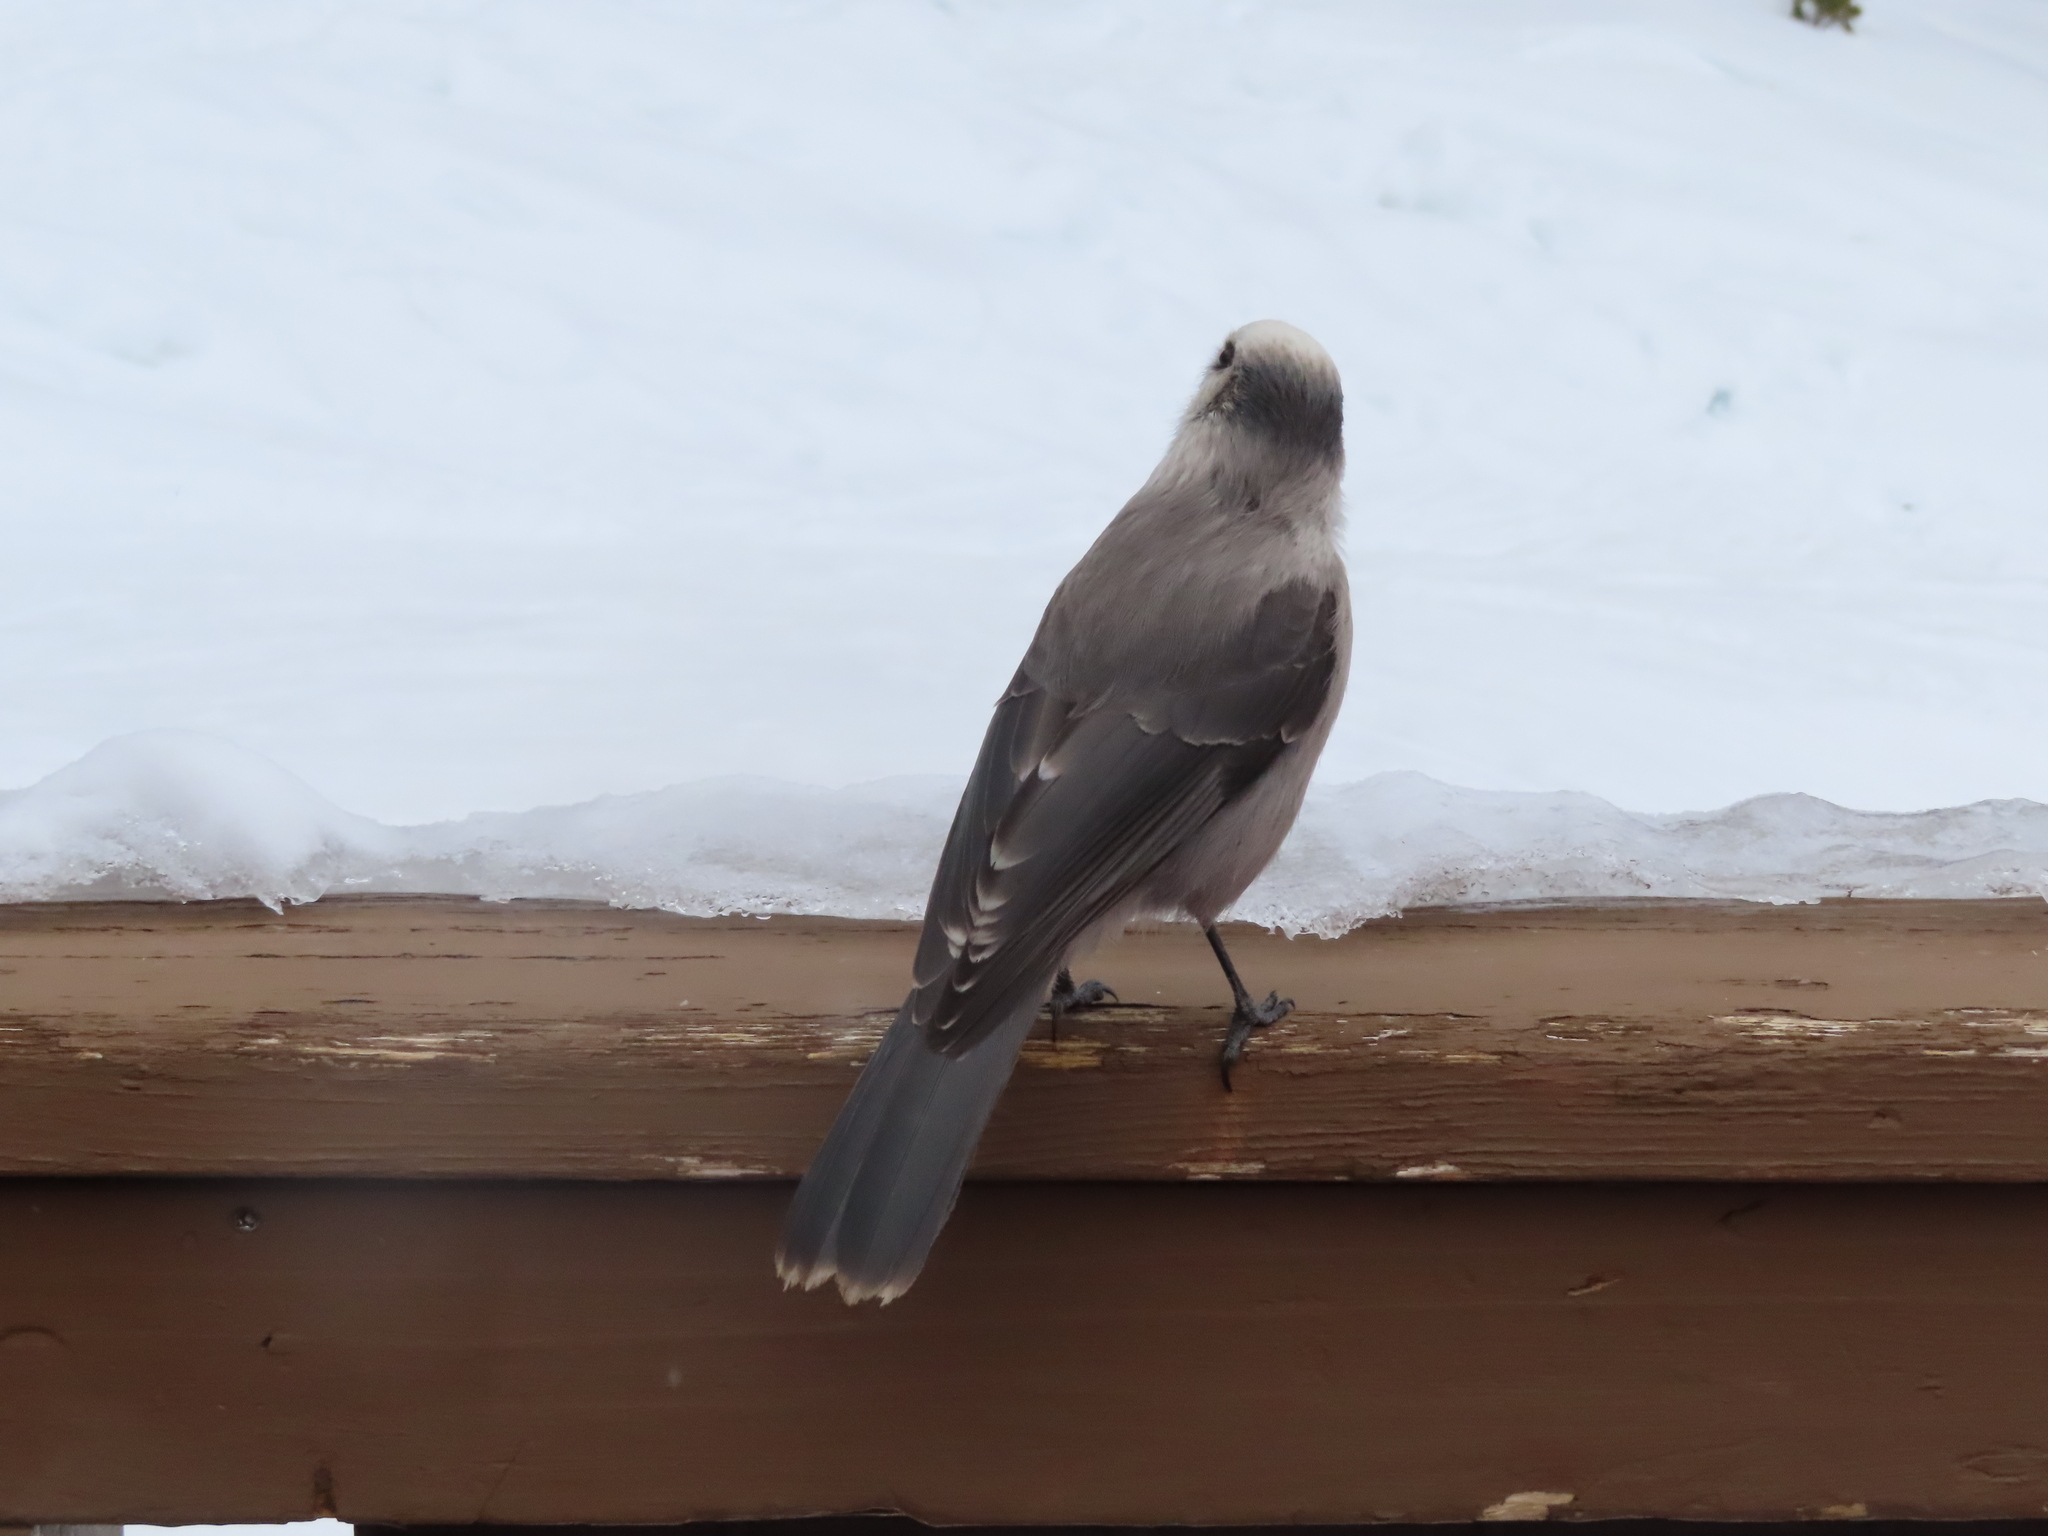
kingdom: Animalia
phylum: Chordata
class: Aves
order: Passeriformes
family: Corvidae
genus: Perisoreus
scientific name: Perisoreus canadensis
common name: Gray jay
